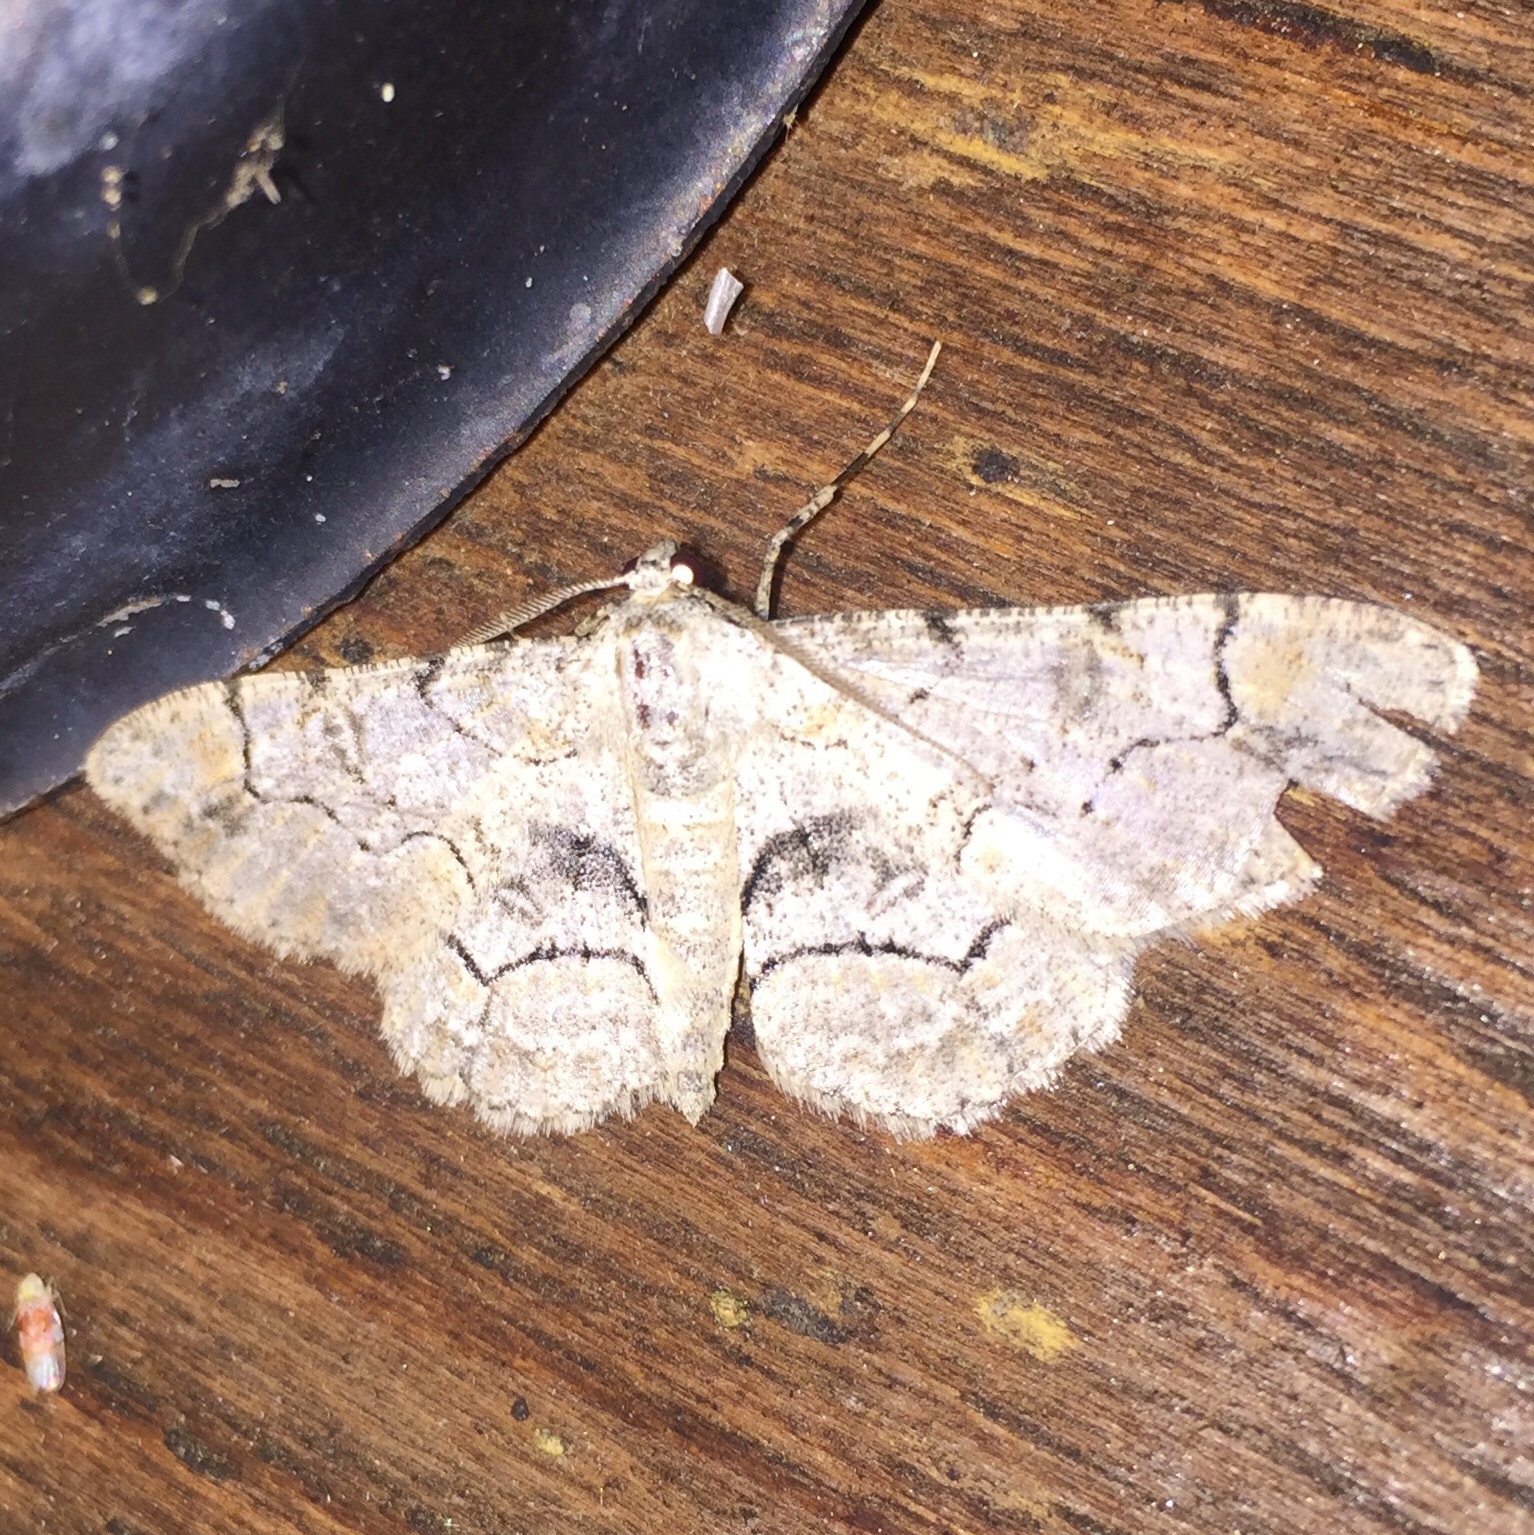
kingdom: Animalia
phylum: Arthropoda
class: Insecta
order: Lepidoptera
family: Geometridae
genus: Iridopsis
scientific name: Iridopsis larvaria
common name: Bent-line gray
